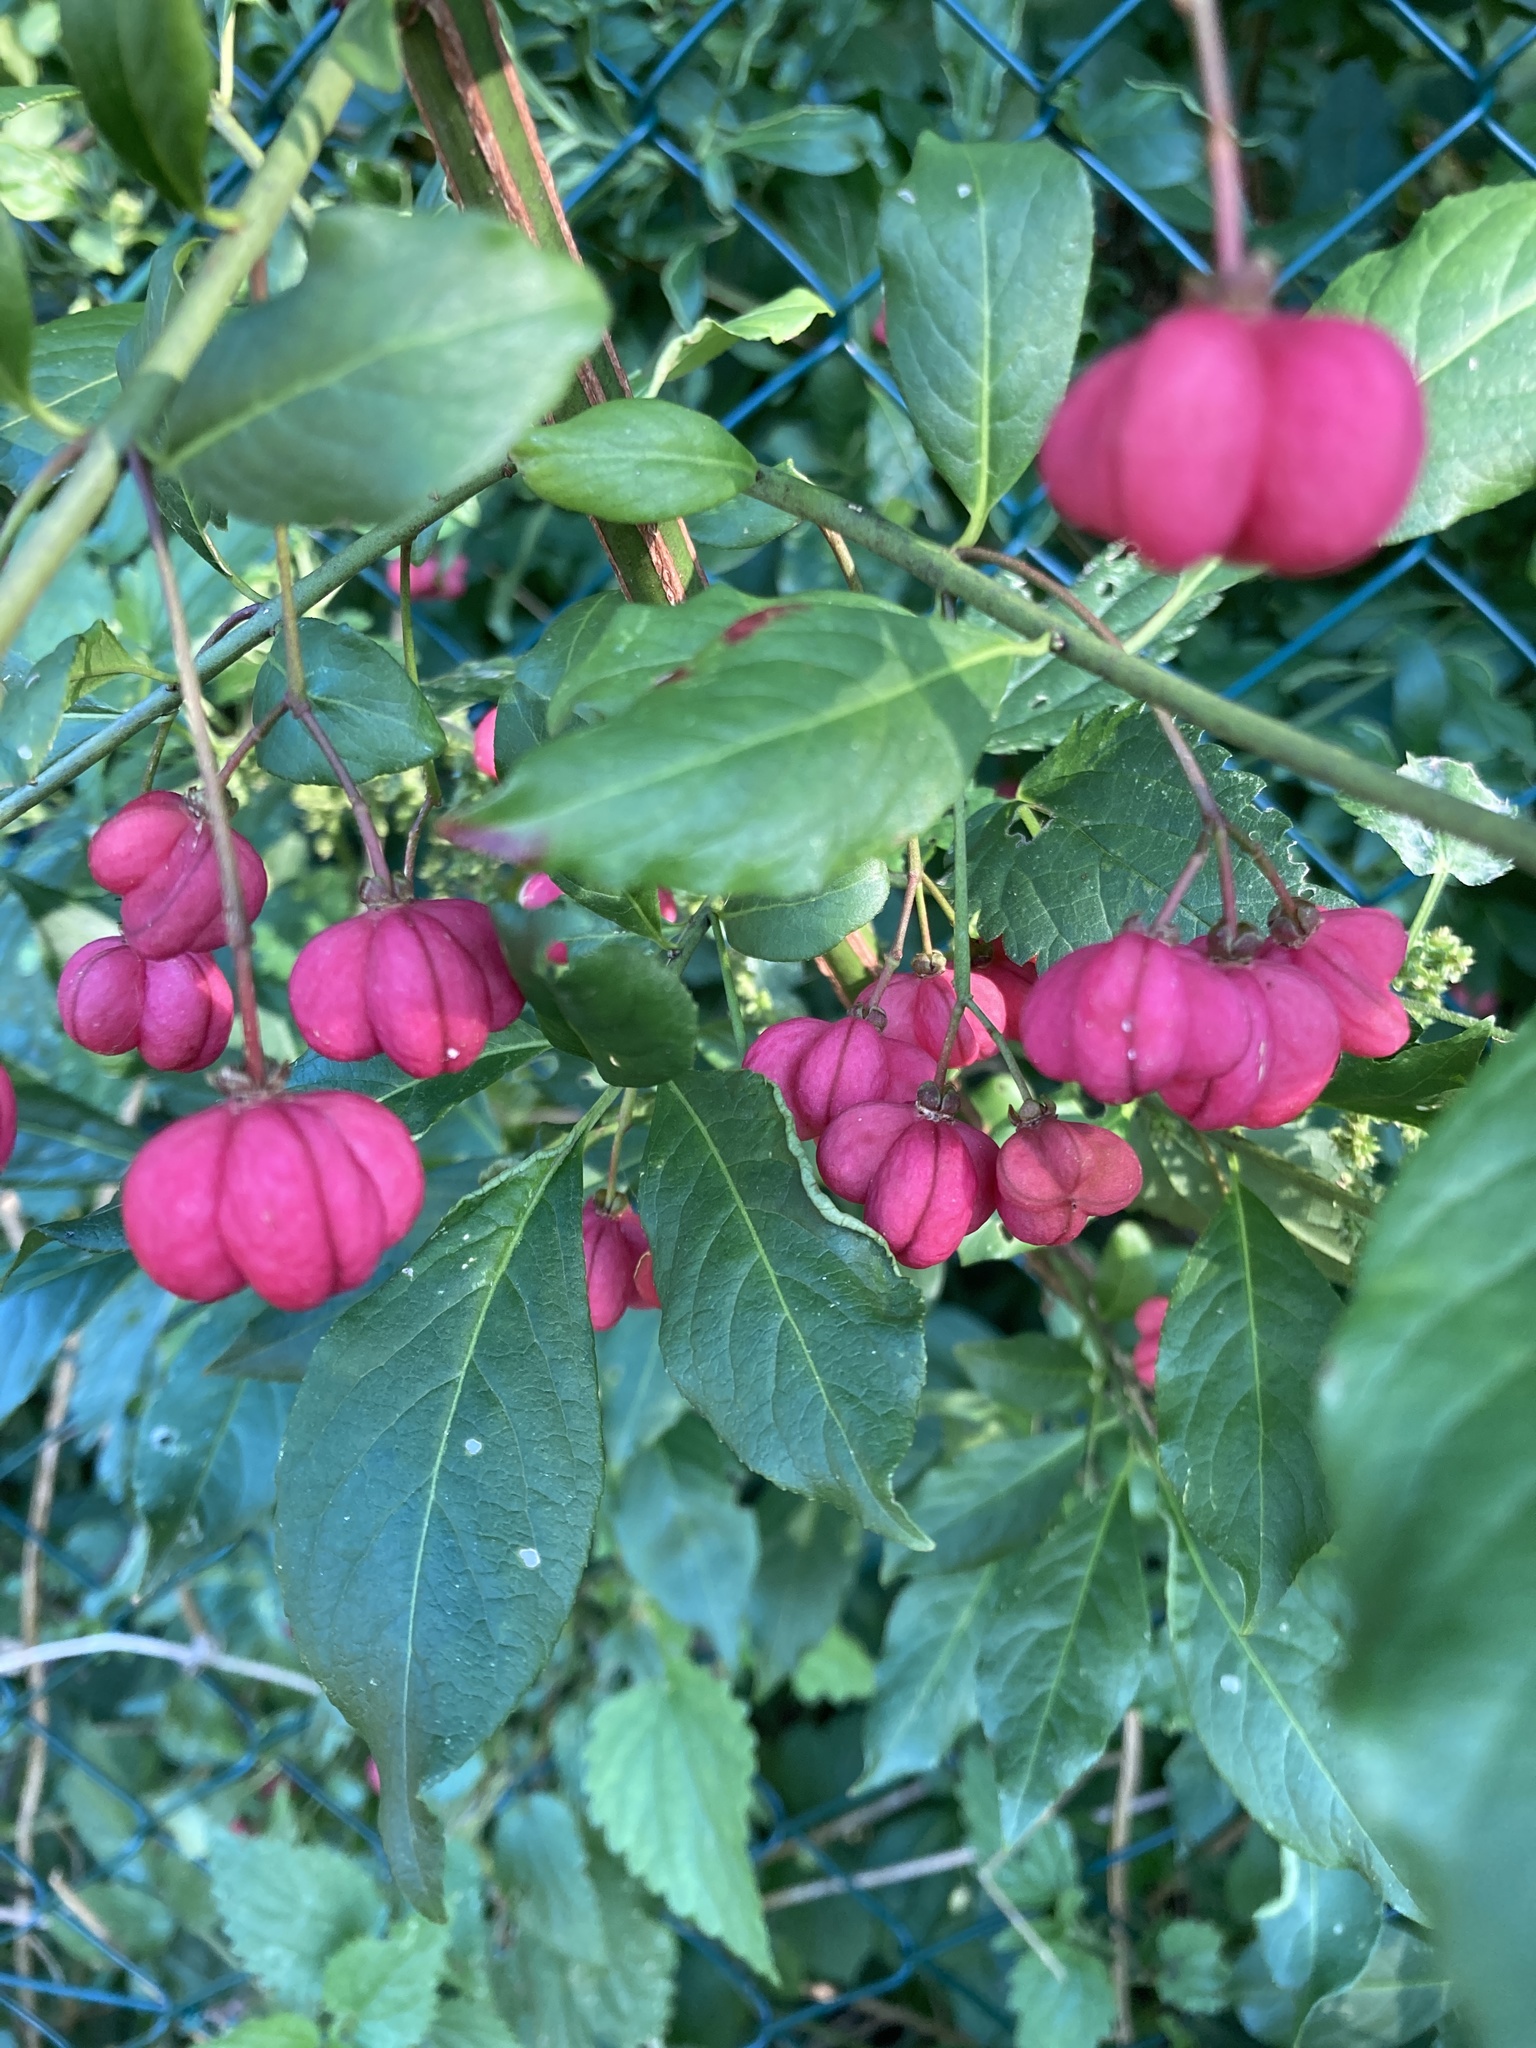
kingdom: Plantae
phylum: Tracheophyta
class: Magnoliopsida
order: Celastrales
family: Celastraceae
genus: Euonymus
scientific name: Euonymus europaeus
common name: Spindle
